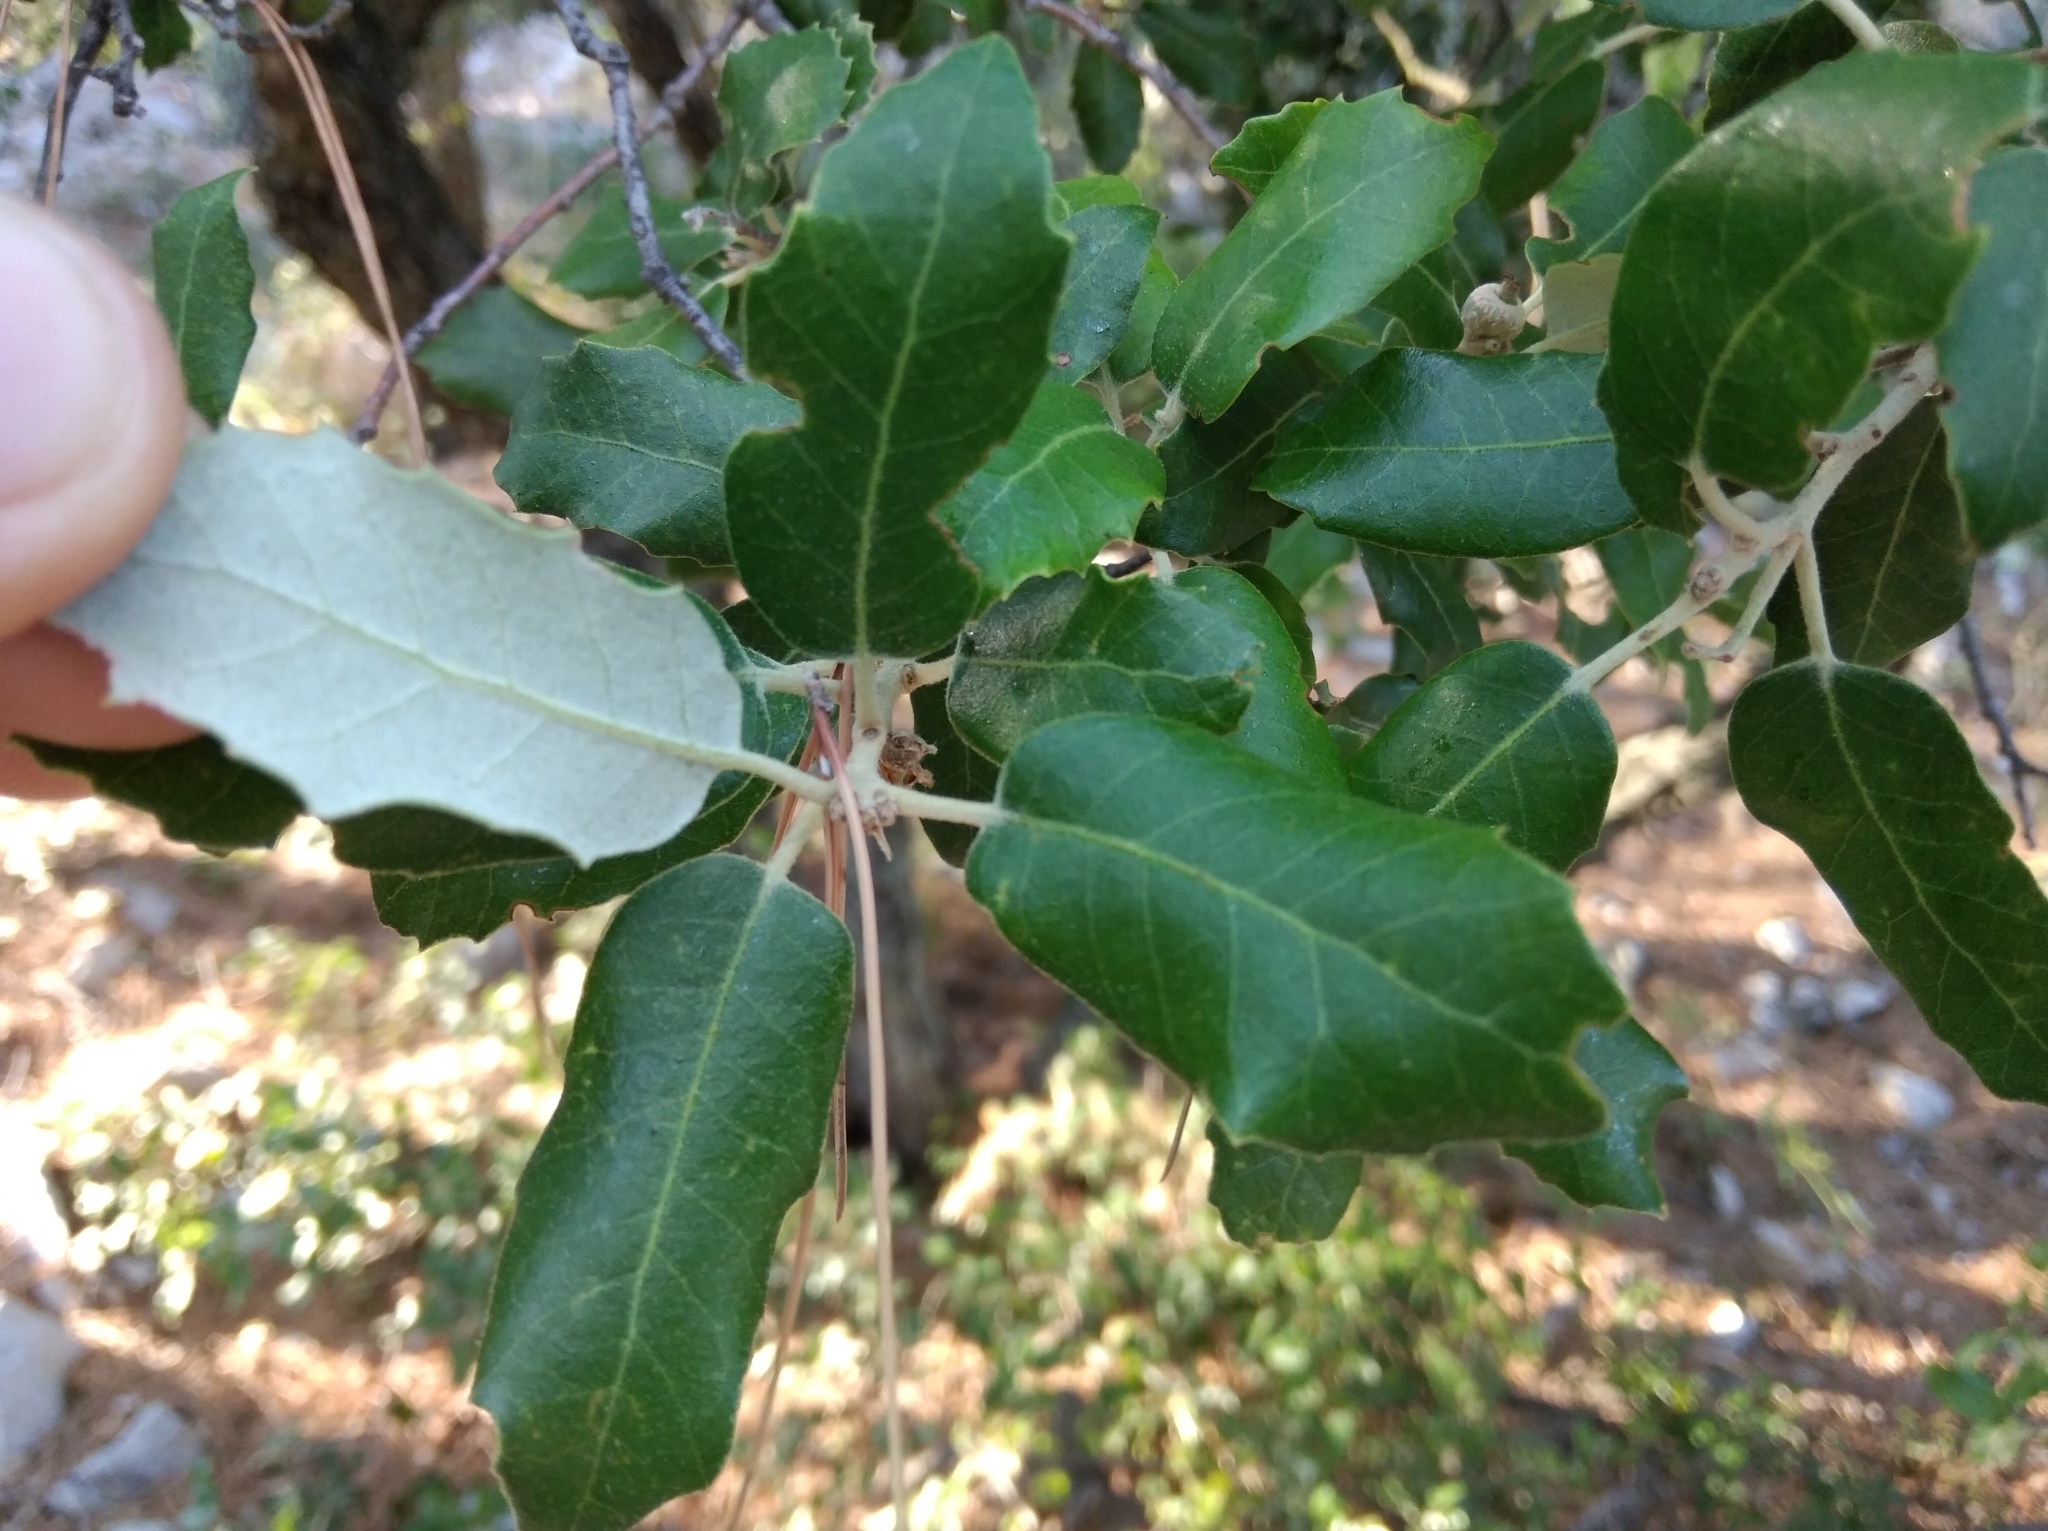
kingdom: Plantae
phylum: Tracheophyta
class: Magnoliopsida
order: Fagales
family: Fagaceae
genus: Quercus
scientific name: Quercus ilex
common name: Evergreen oak
